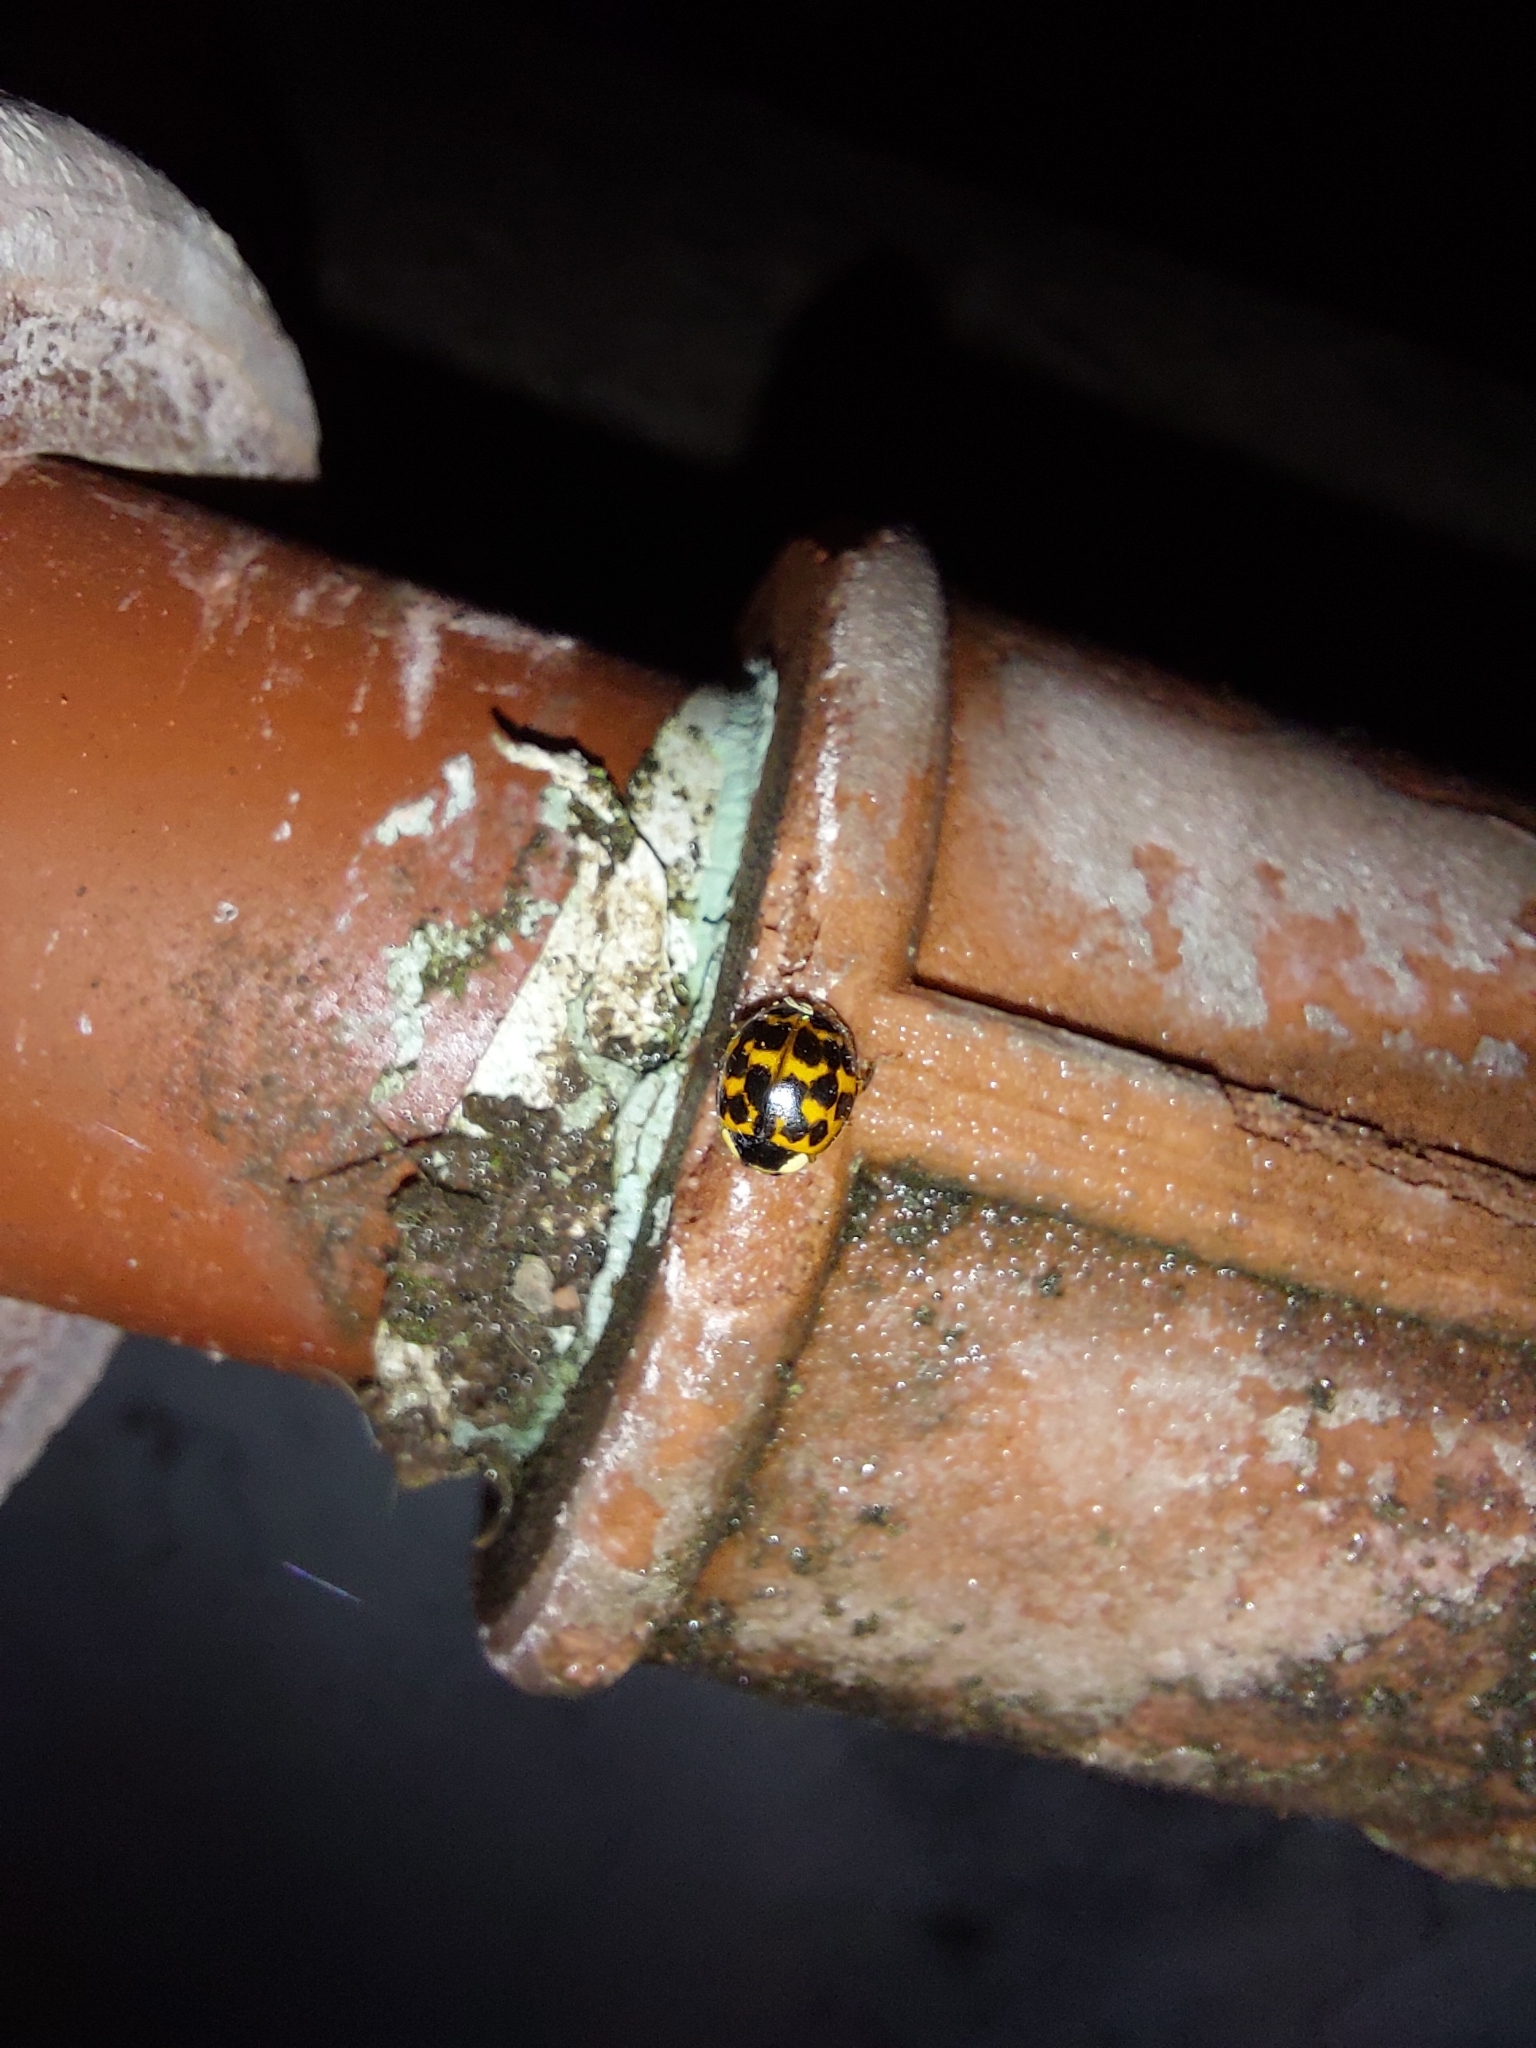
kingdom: Animalia
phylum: Arthropoda
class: Insecta
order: Coleoptera
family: Coccinellidae
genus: Harmonia
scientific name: Harmonia axyridis
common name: Harlequin ladybird
